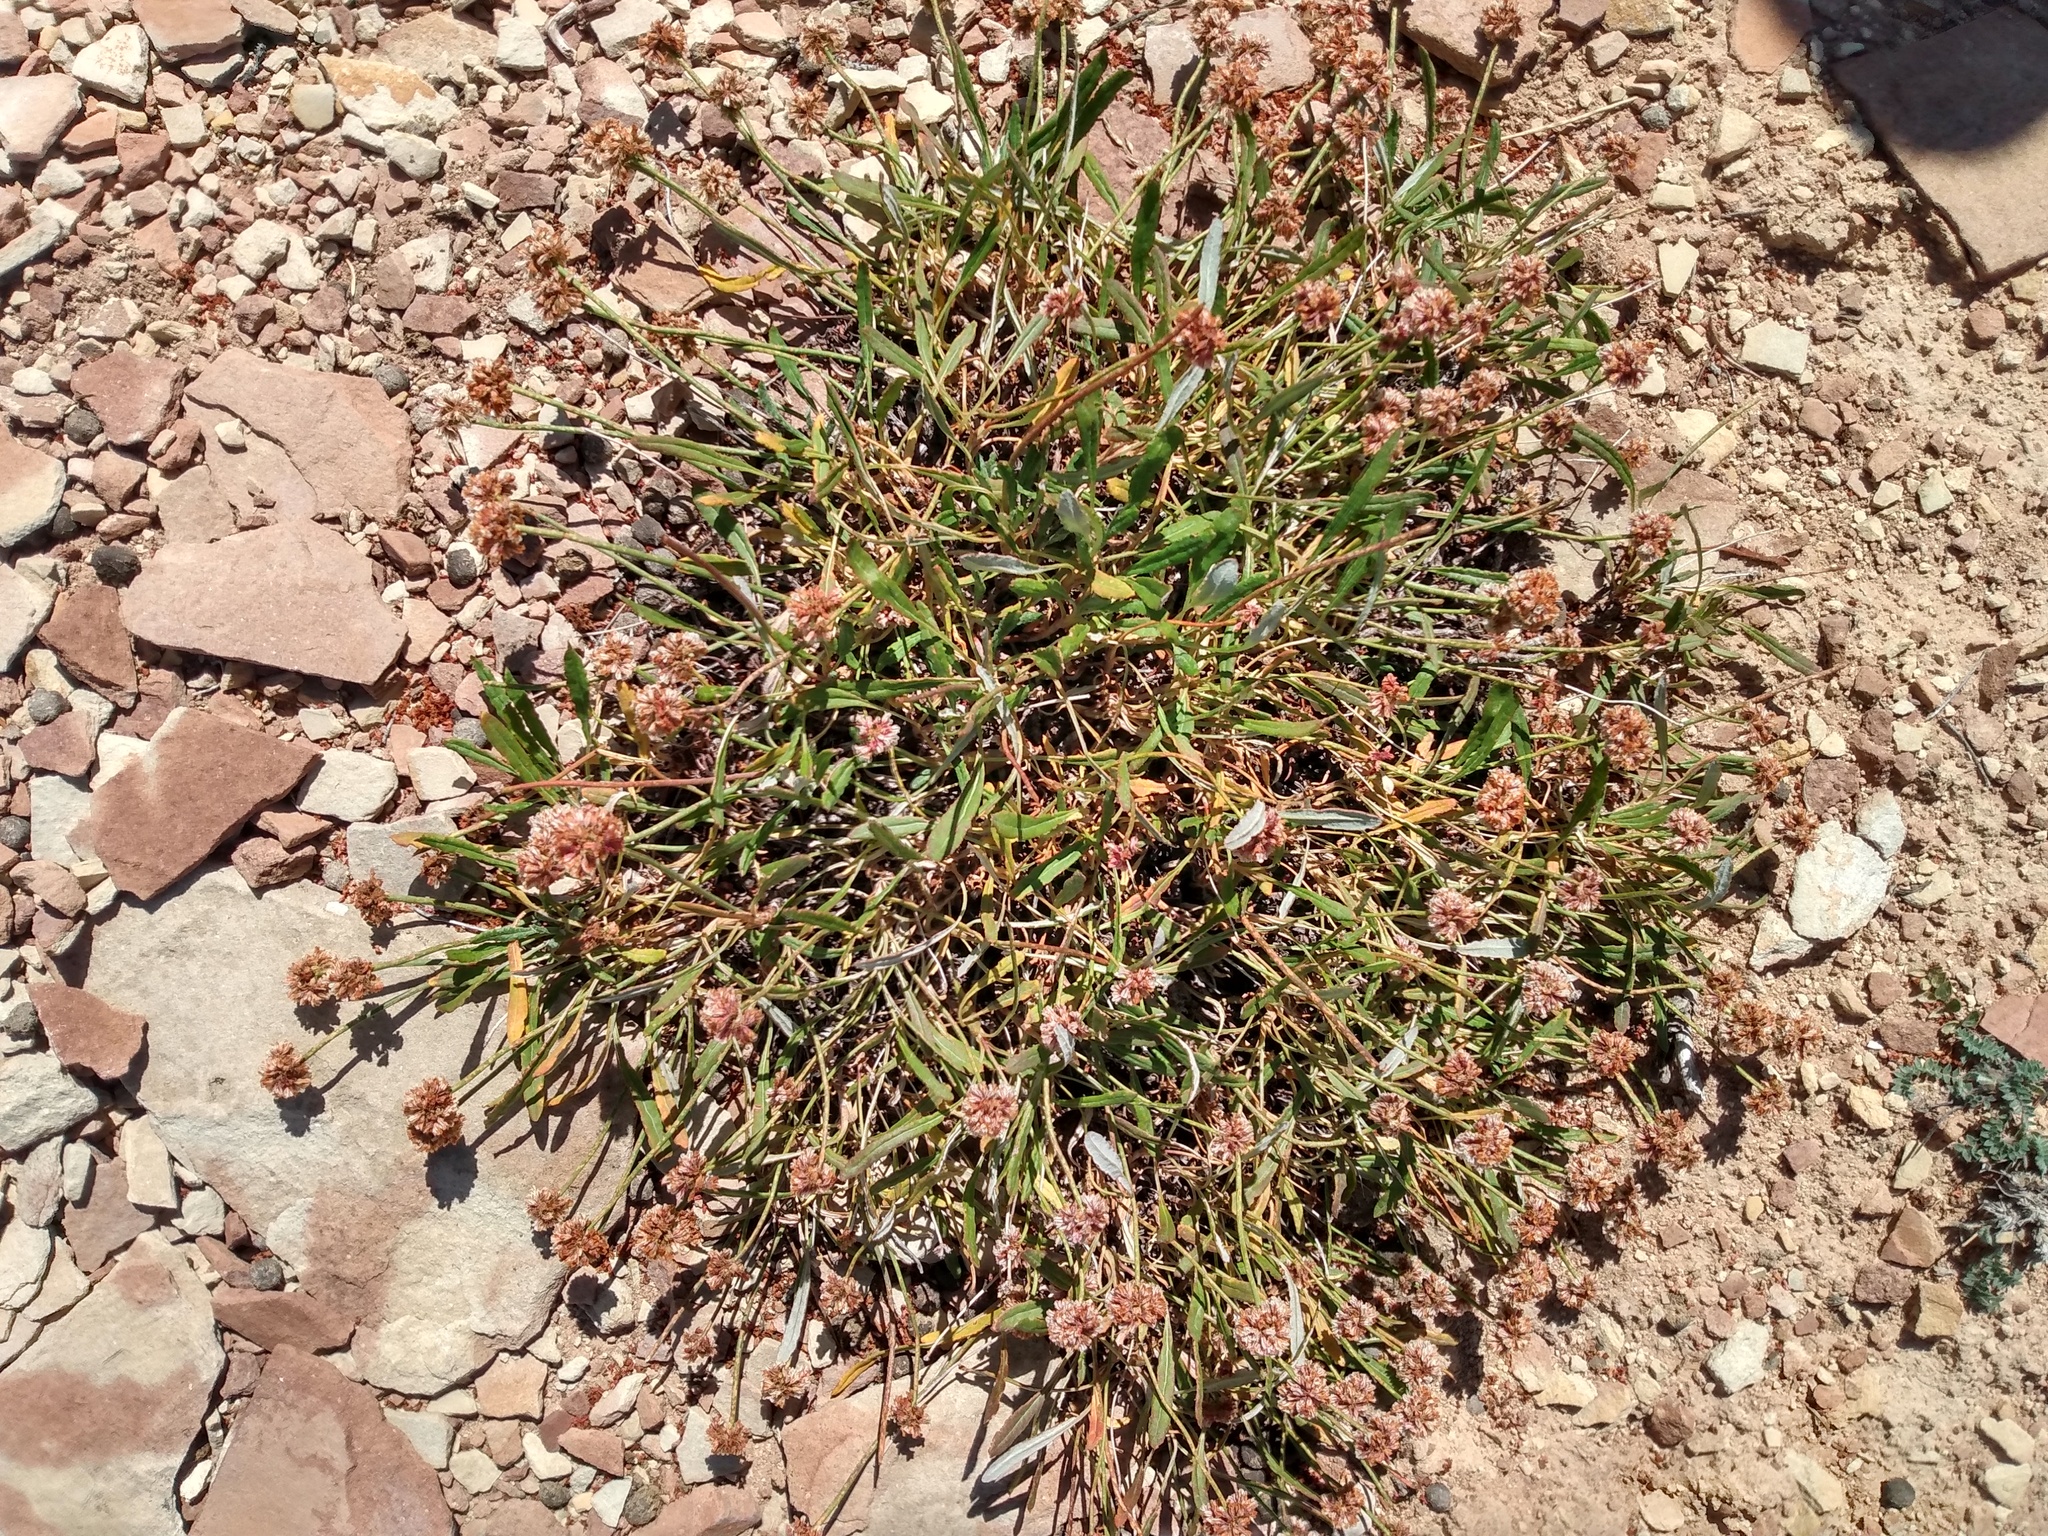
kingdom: Plantae
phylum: Tracheophyta
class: Magnoliopsida
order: Caryophyllales
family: Polygonaceae
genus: Eriogonum
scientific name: Eriogonum coloradense
